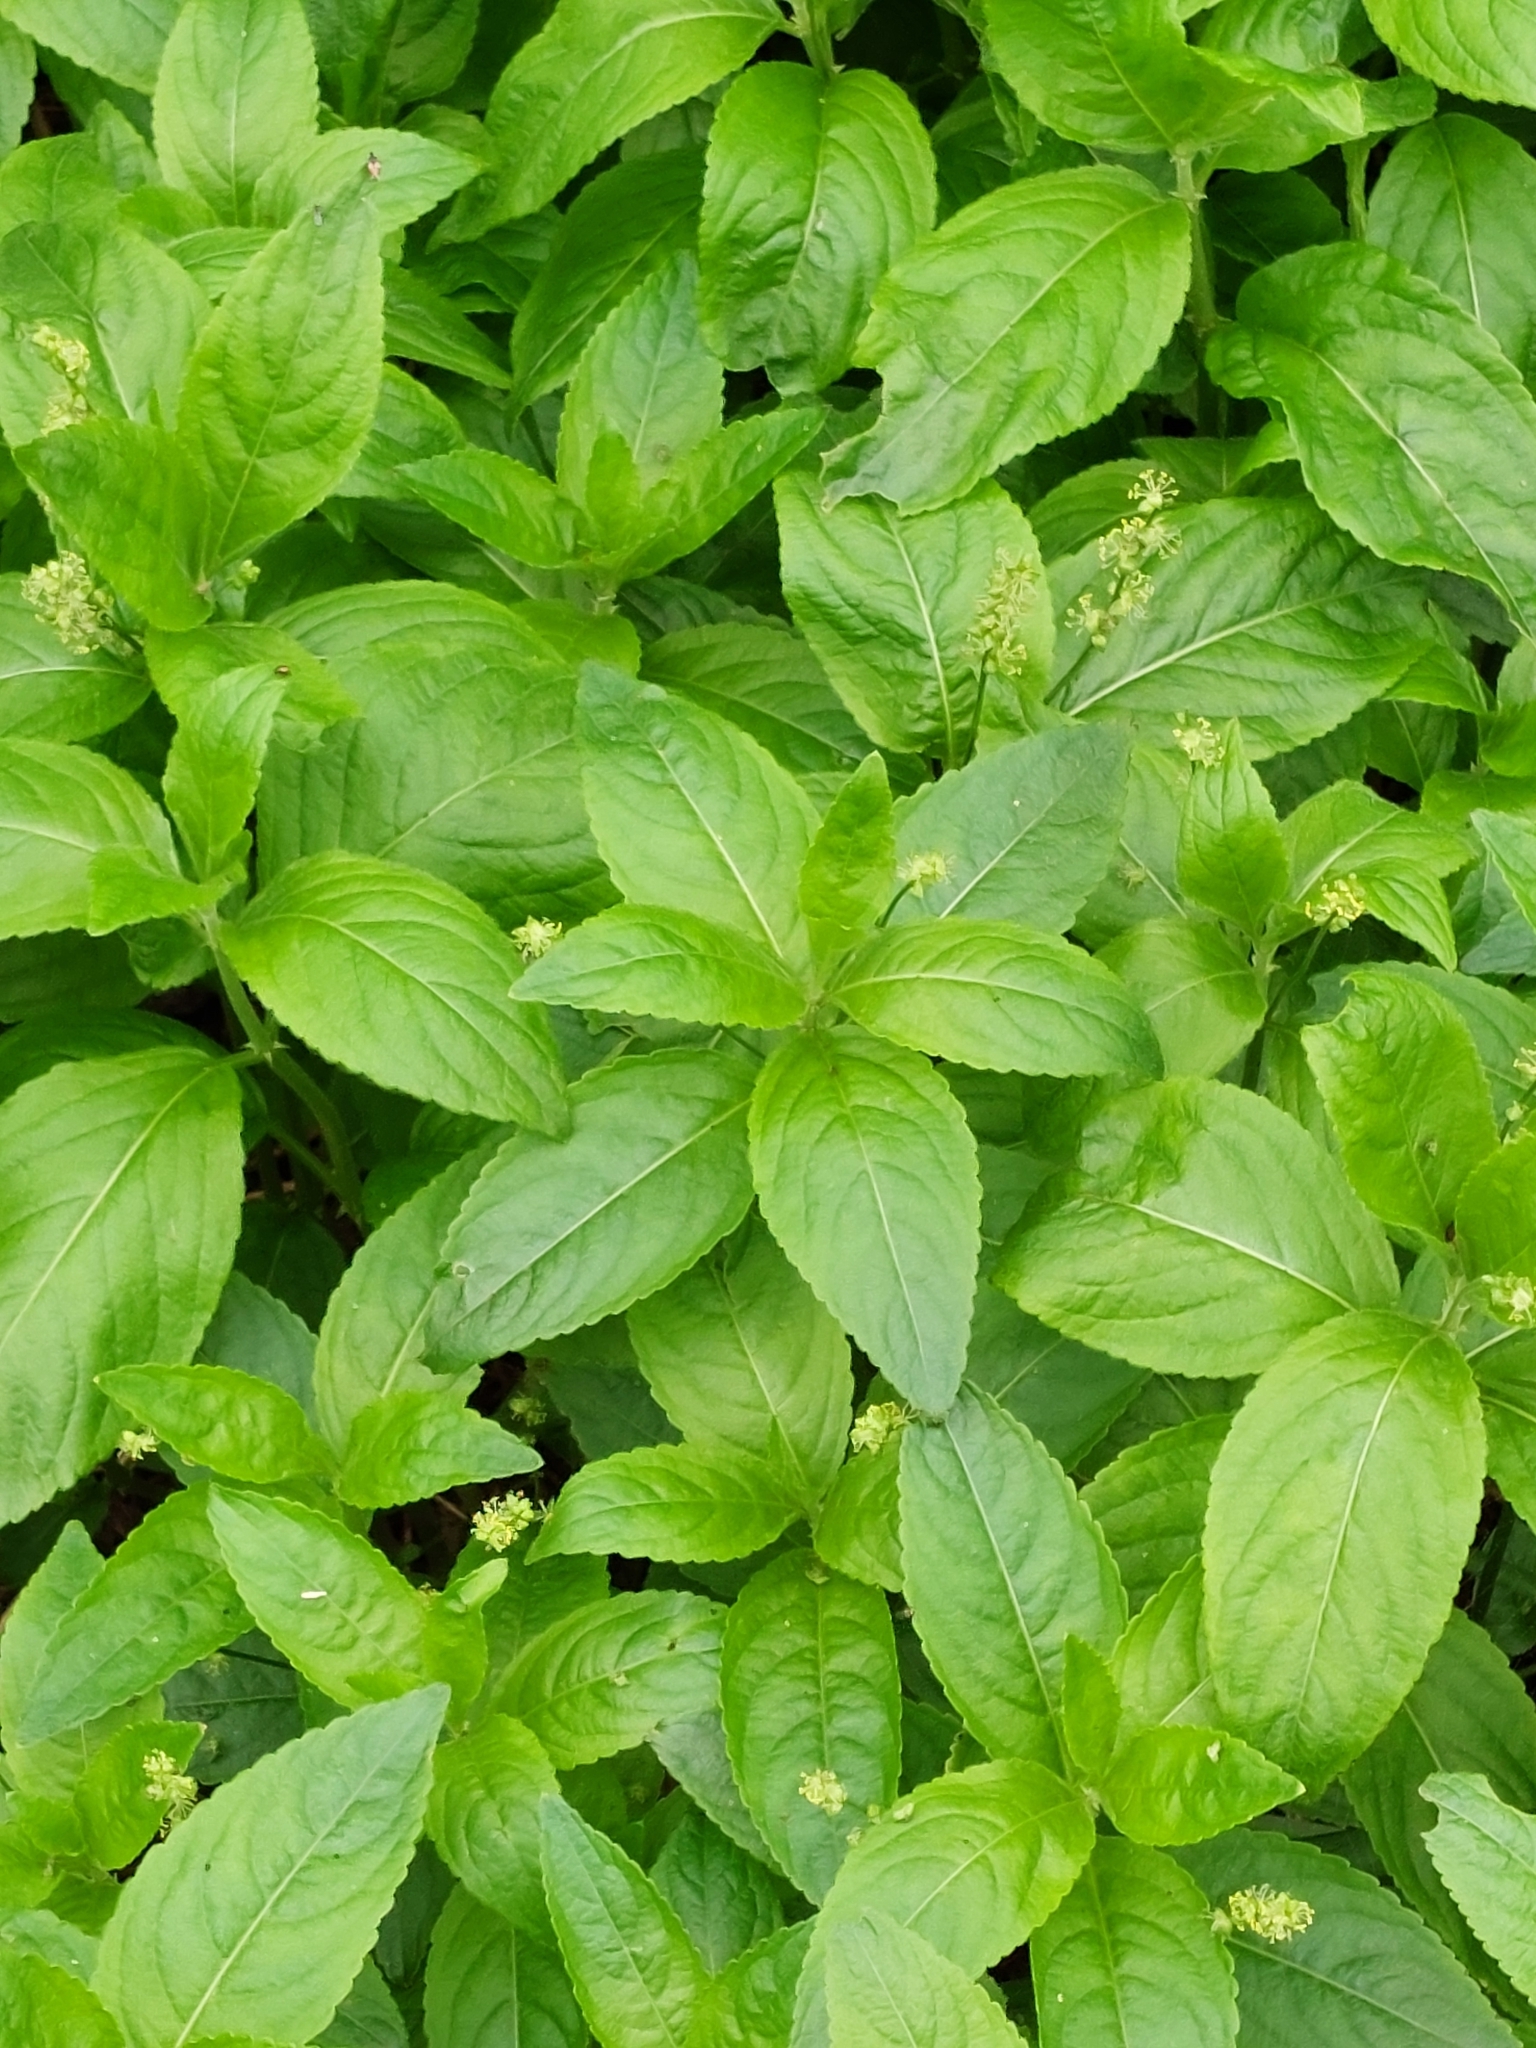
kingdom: Plantae
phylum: Tracheophyta
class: Magnoliopsida
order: Malpighiales
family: Euphorbiaceae
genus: Mercurialis
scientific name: Mercurialis perennis
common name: Dog mercury
